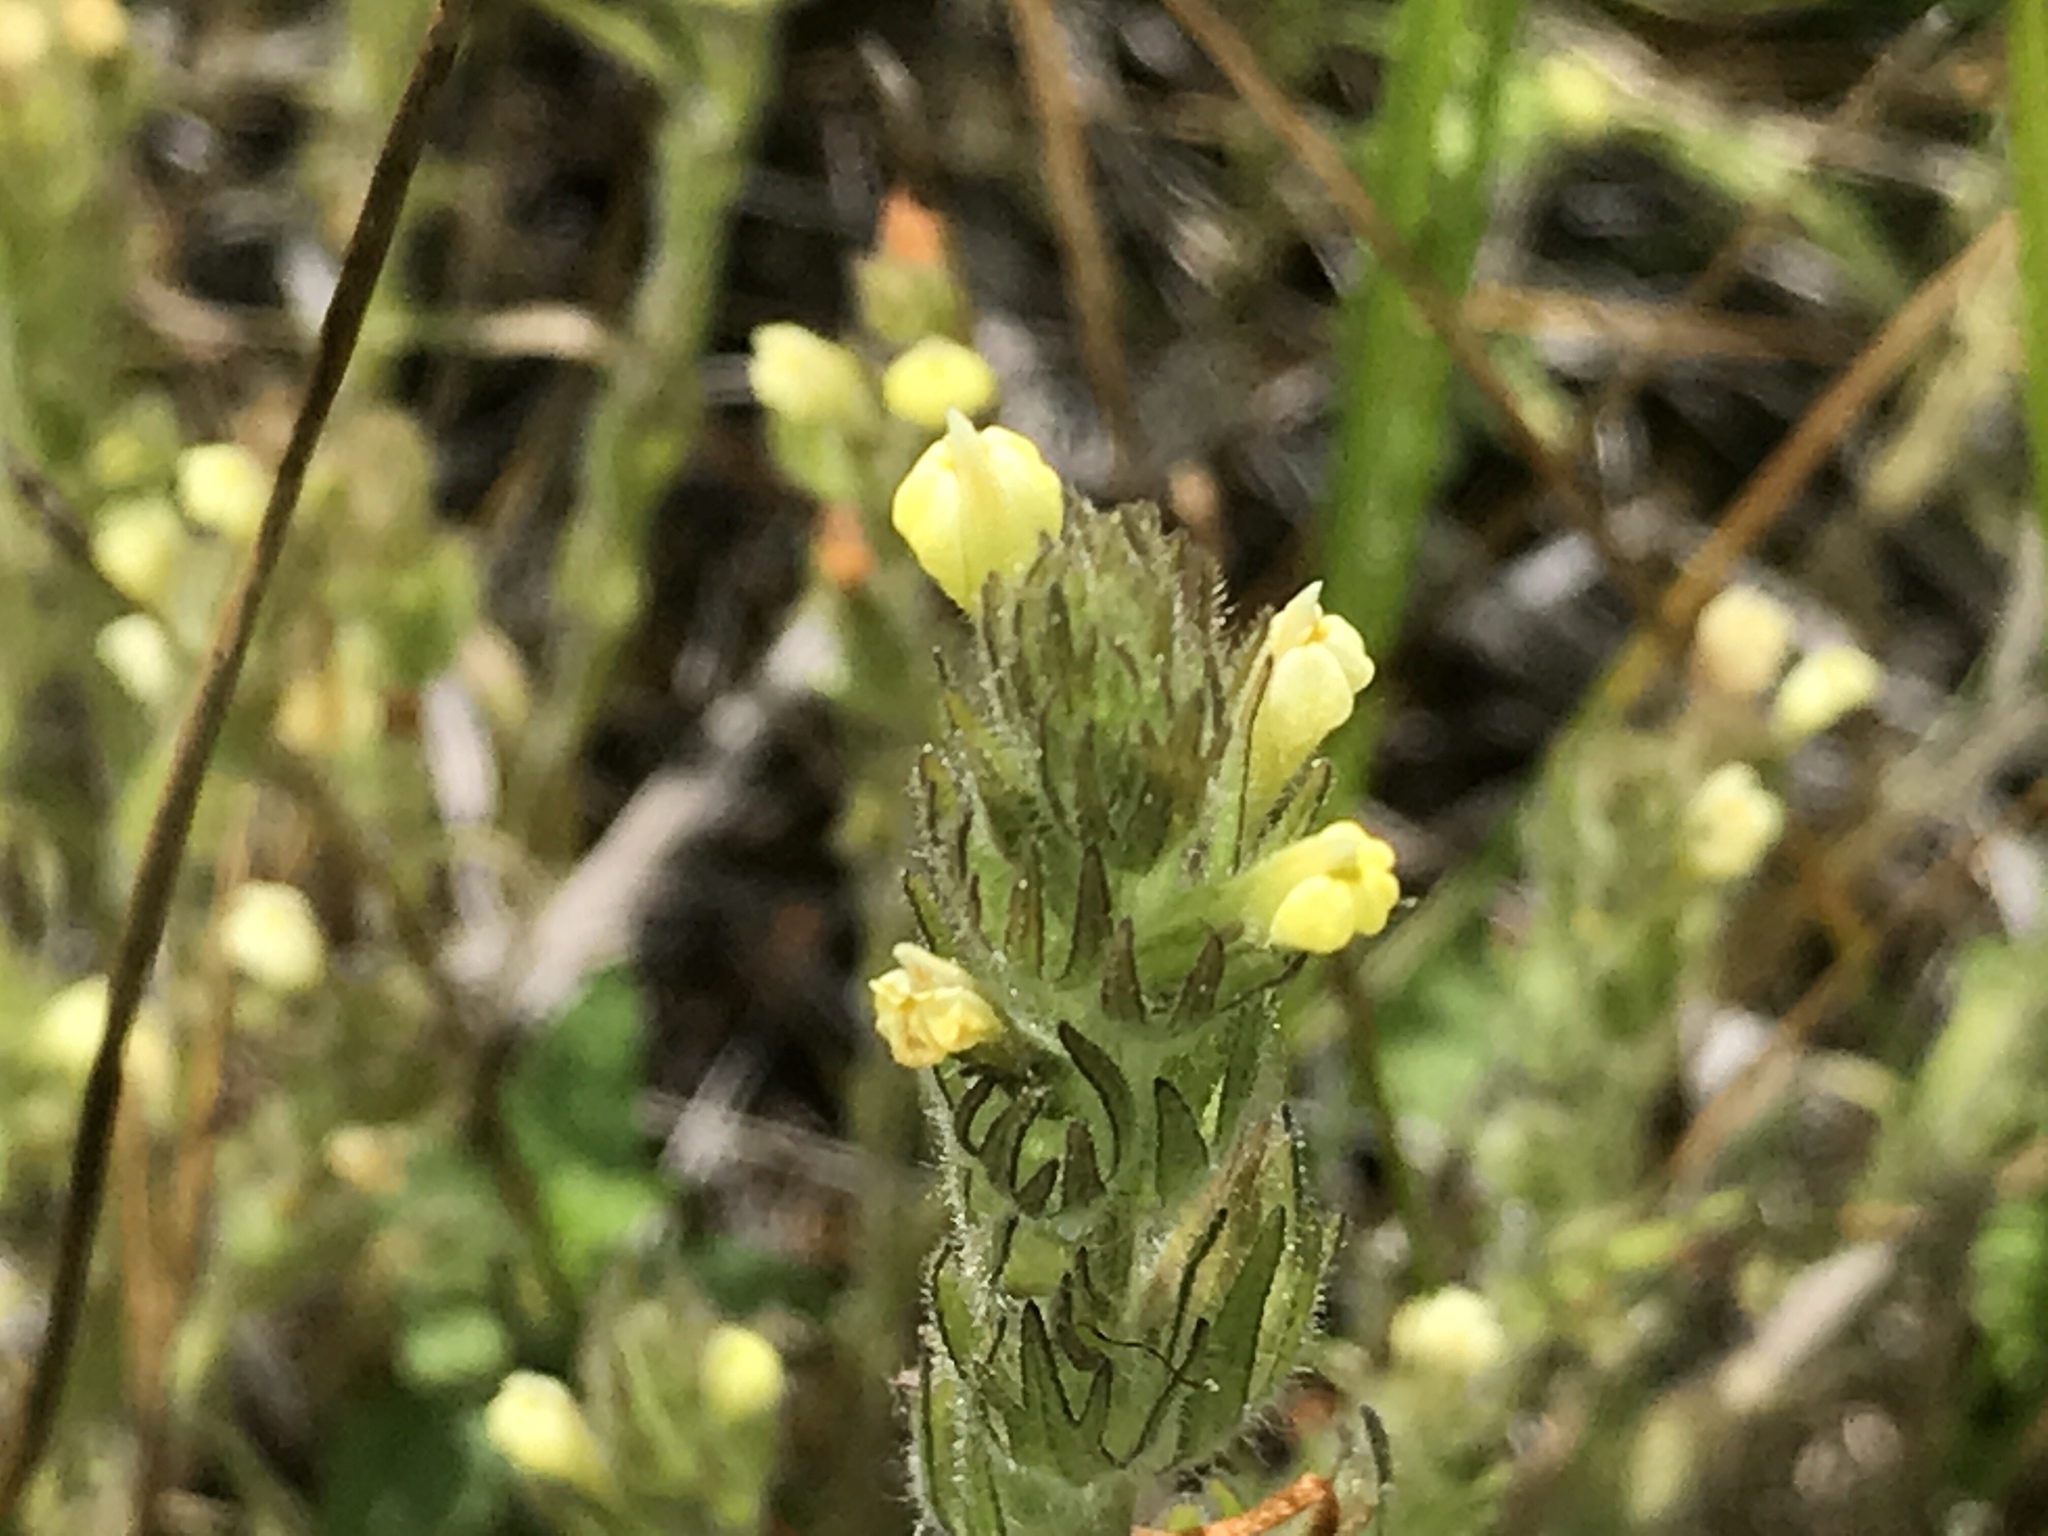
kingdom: Plantae
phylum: Tracheophyta
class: Magnoliopsida
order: Lamiales
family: Orobanchaceae
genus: Castilleja
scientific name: Castilleja tenuis
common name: Hairy indian paintbrush
